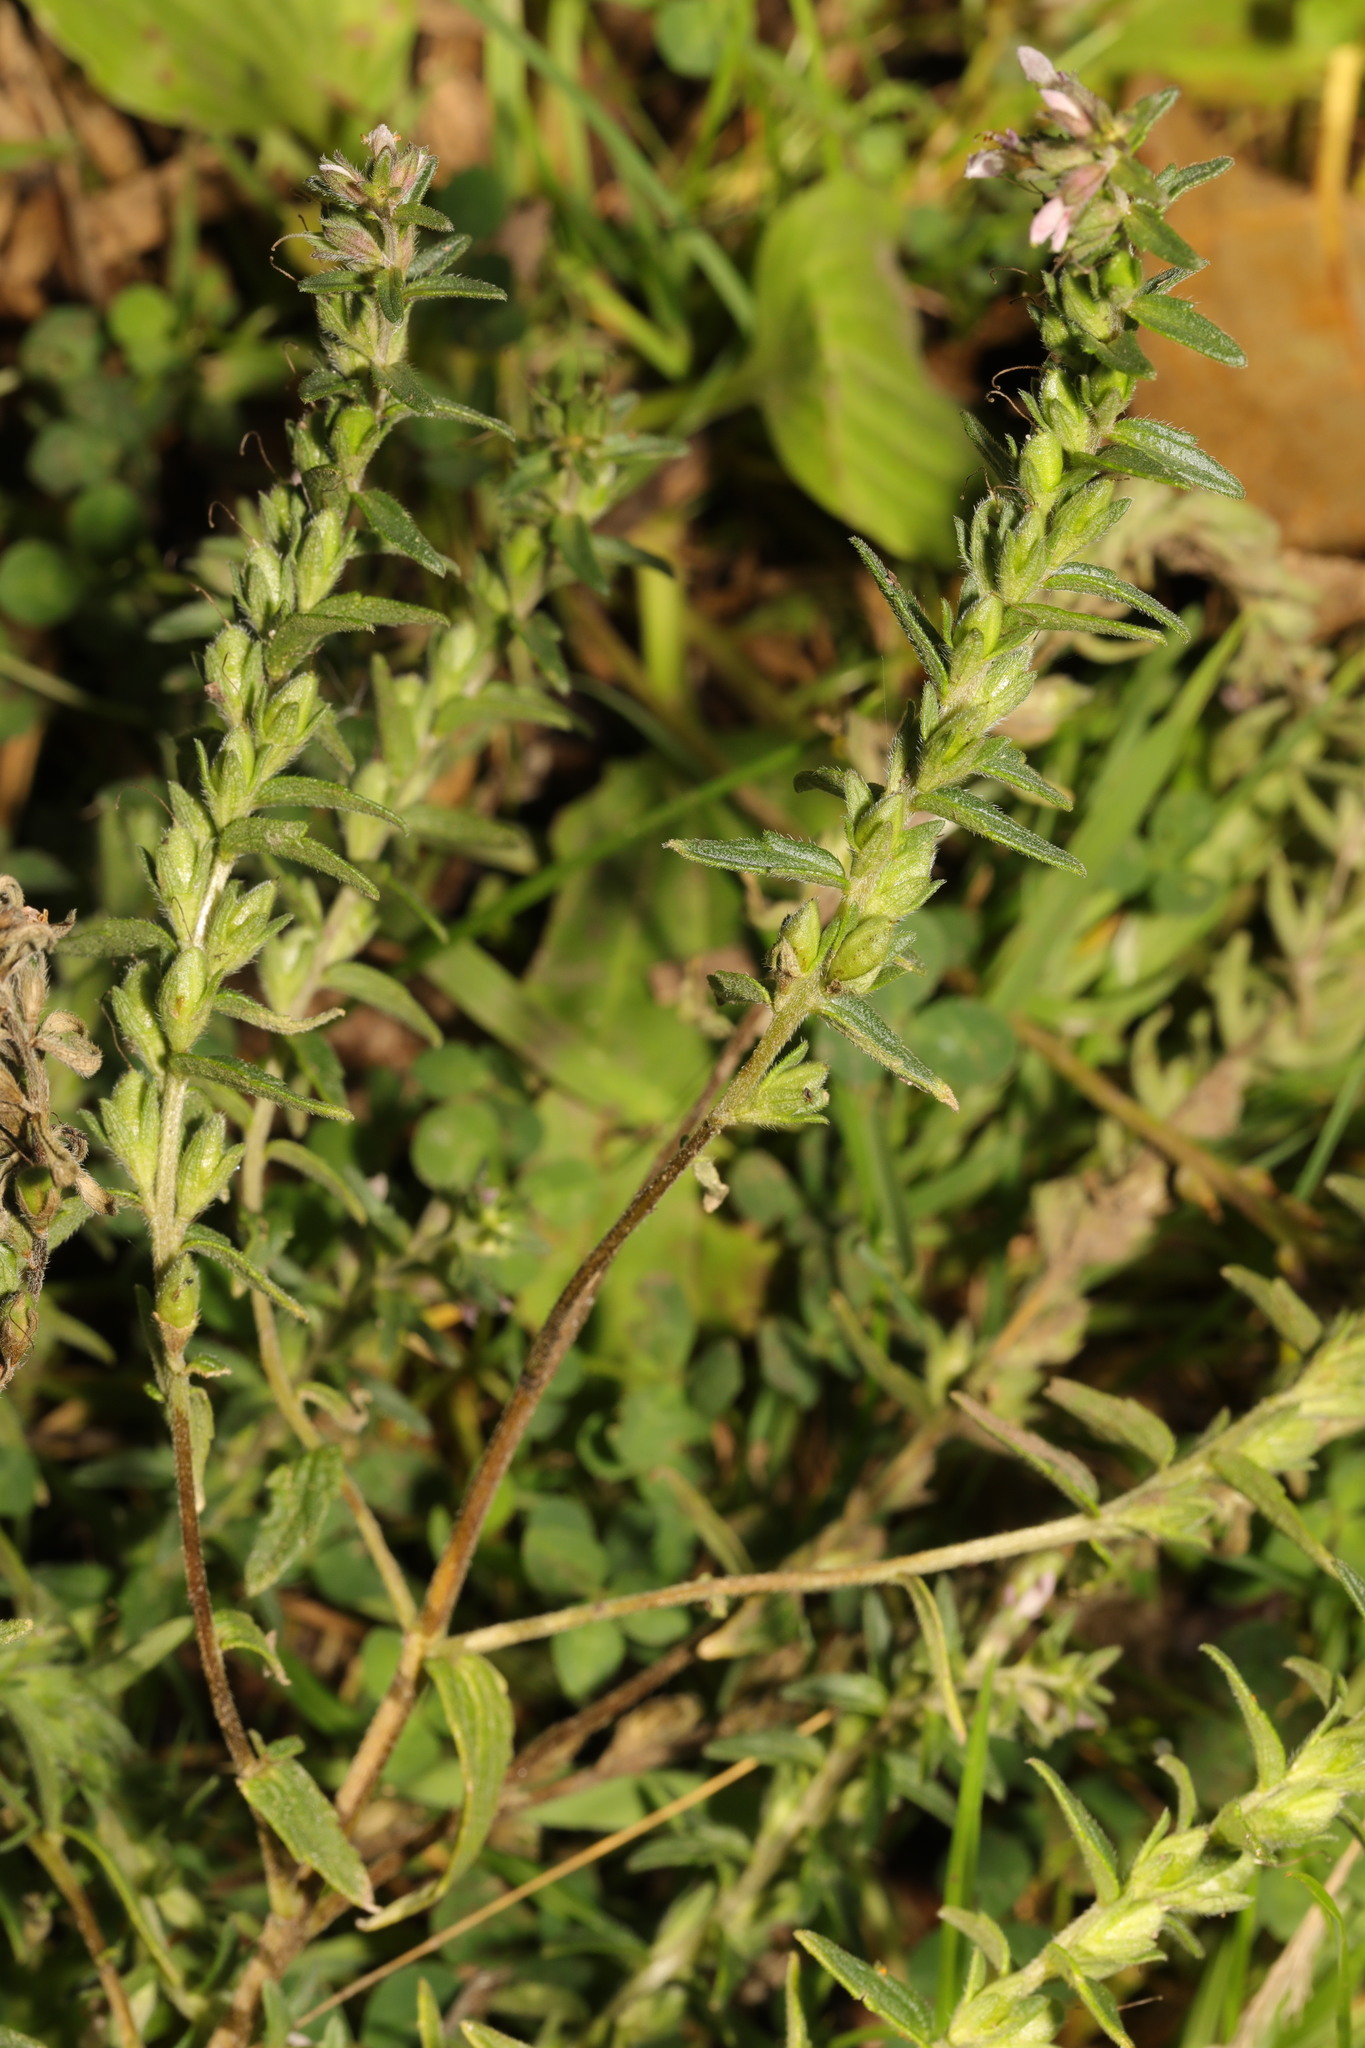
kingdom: Plantae
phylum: Tracheophyta
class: Magnoliopsida
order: Lamiales
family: Orobanchaceae
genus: Odontites
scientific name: Odontites vulgaris
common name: Broomrape
